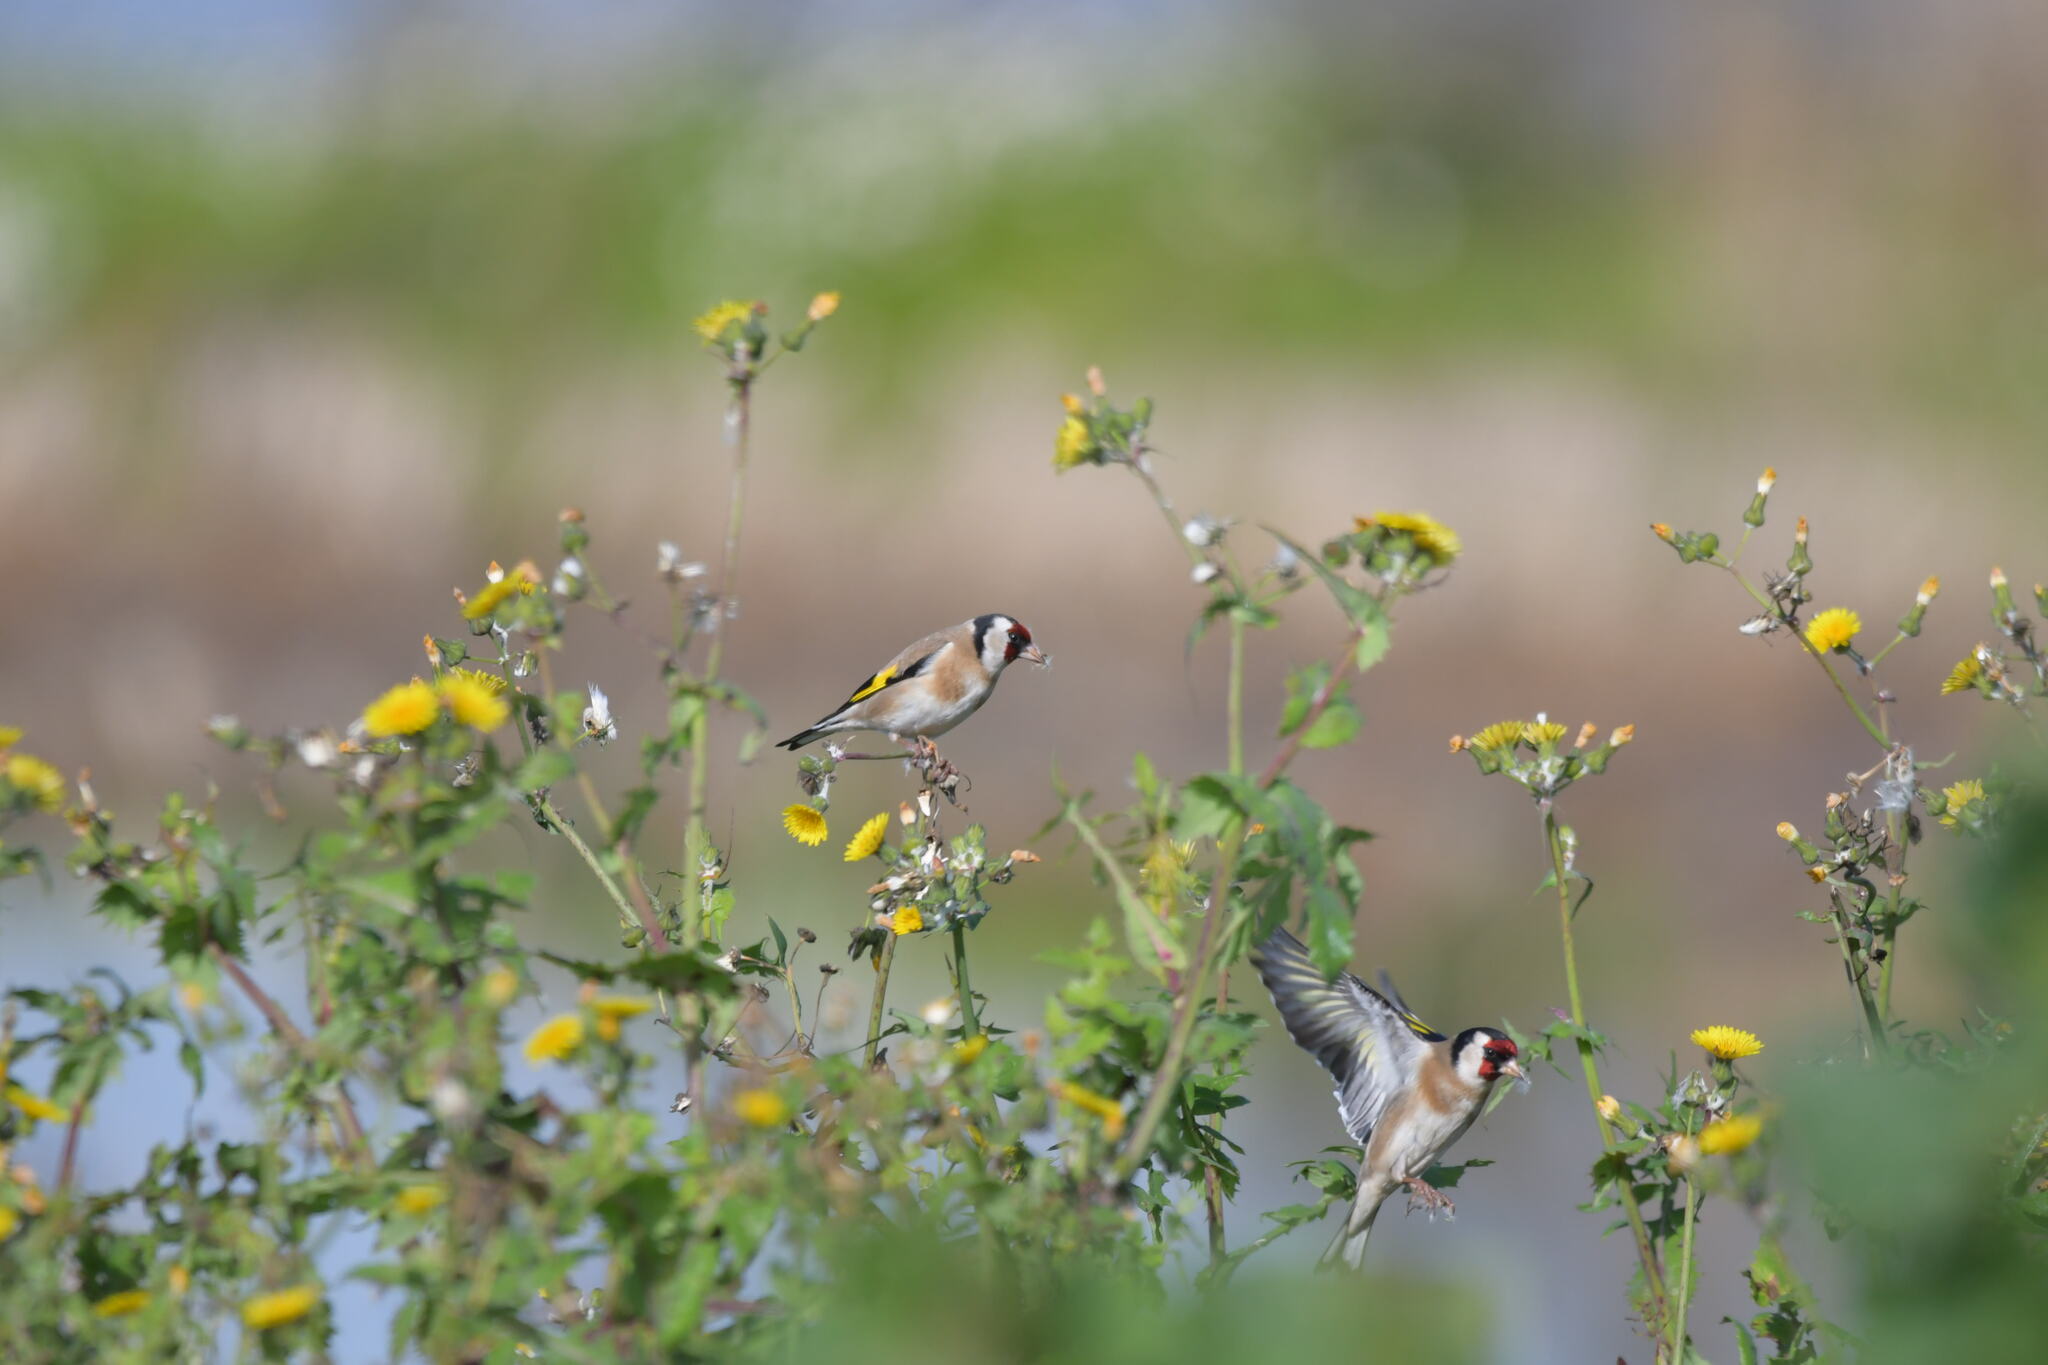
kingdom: Animalia
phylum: Chordata
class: Aves
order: Passeriformes
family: Fringillidae
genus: Carduelis
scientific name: Carduelis carduelis
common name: European goldfinch
